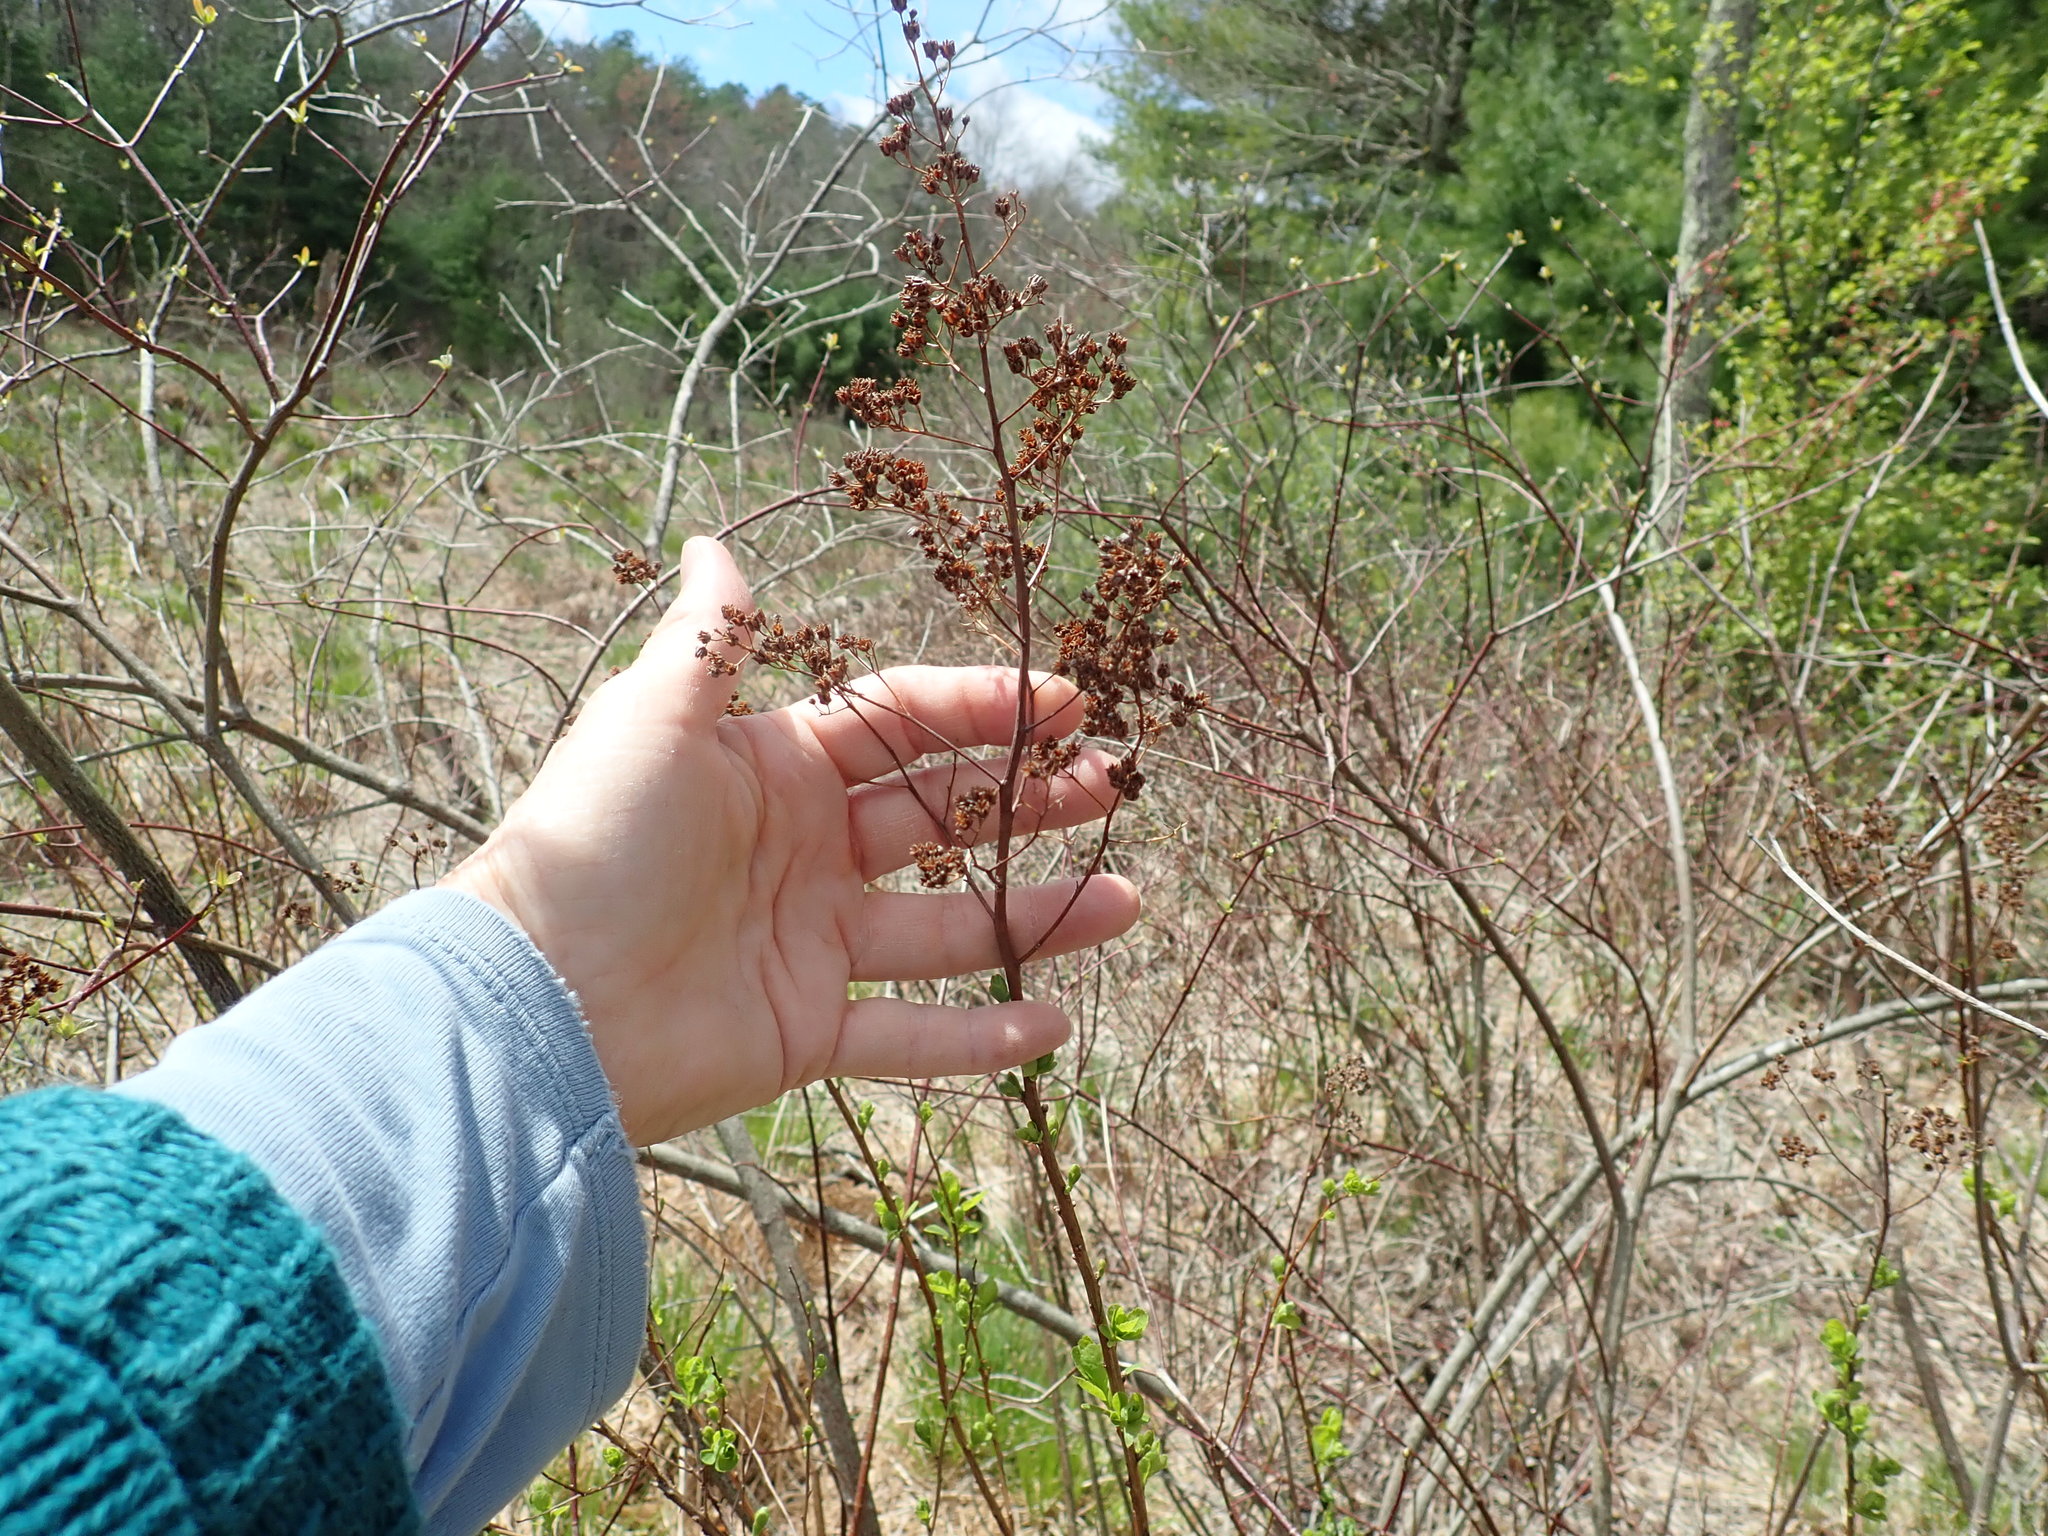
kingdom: Plantae
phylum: Tracheophyta
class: Magnoliopsida
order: Rosales
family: Rosaceae
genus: Spiraea
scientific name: Spiraea alba
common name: Pale bridewort
